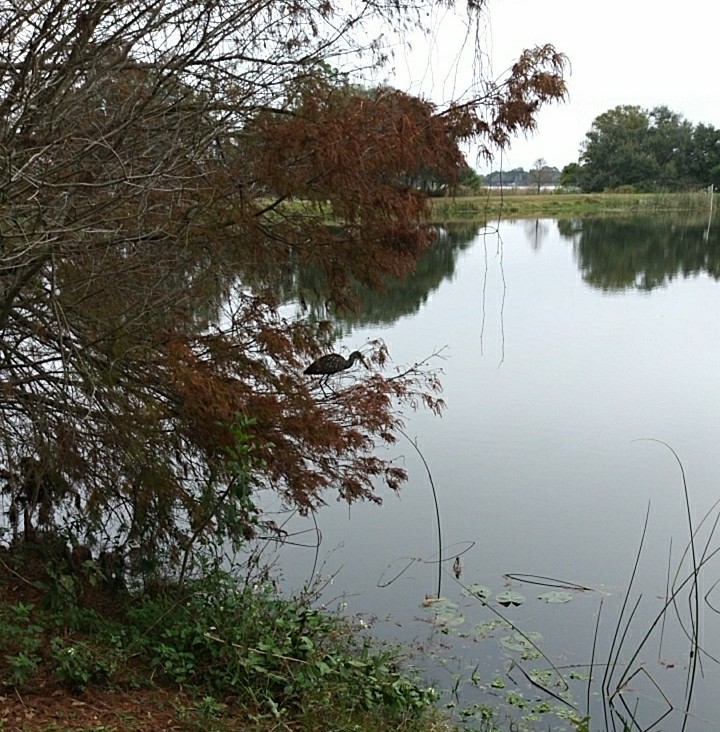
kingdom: Animalia
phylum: Chordata
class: Aves
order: Gruiformes
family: Aramidae
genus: Aramus
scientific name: Aramus guarauna
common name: Limpkin
